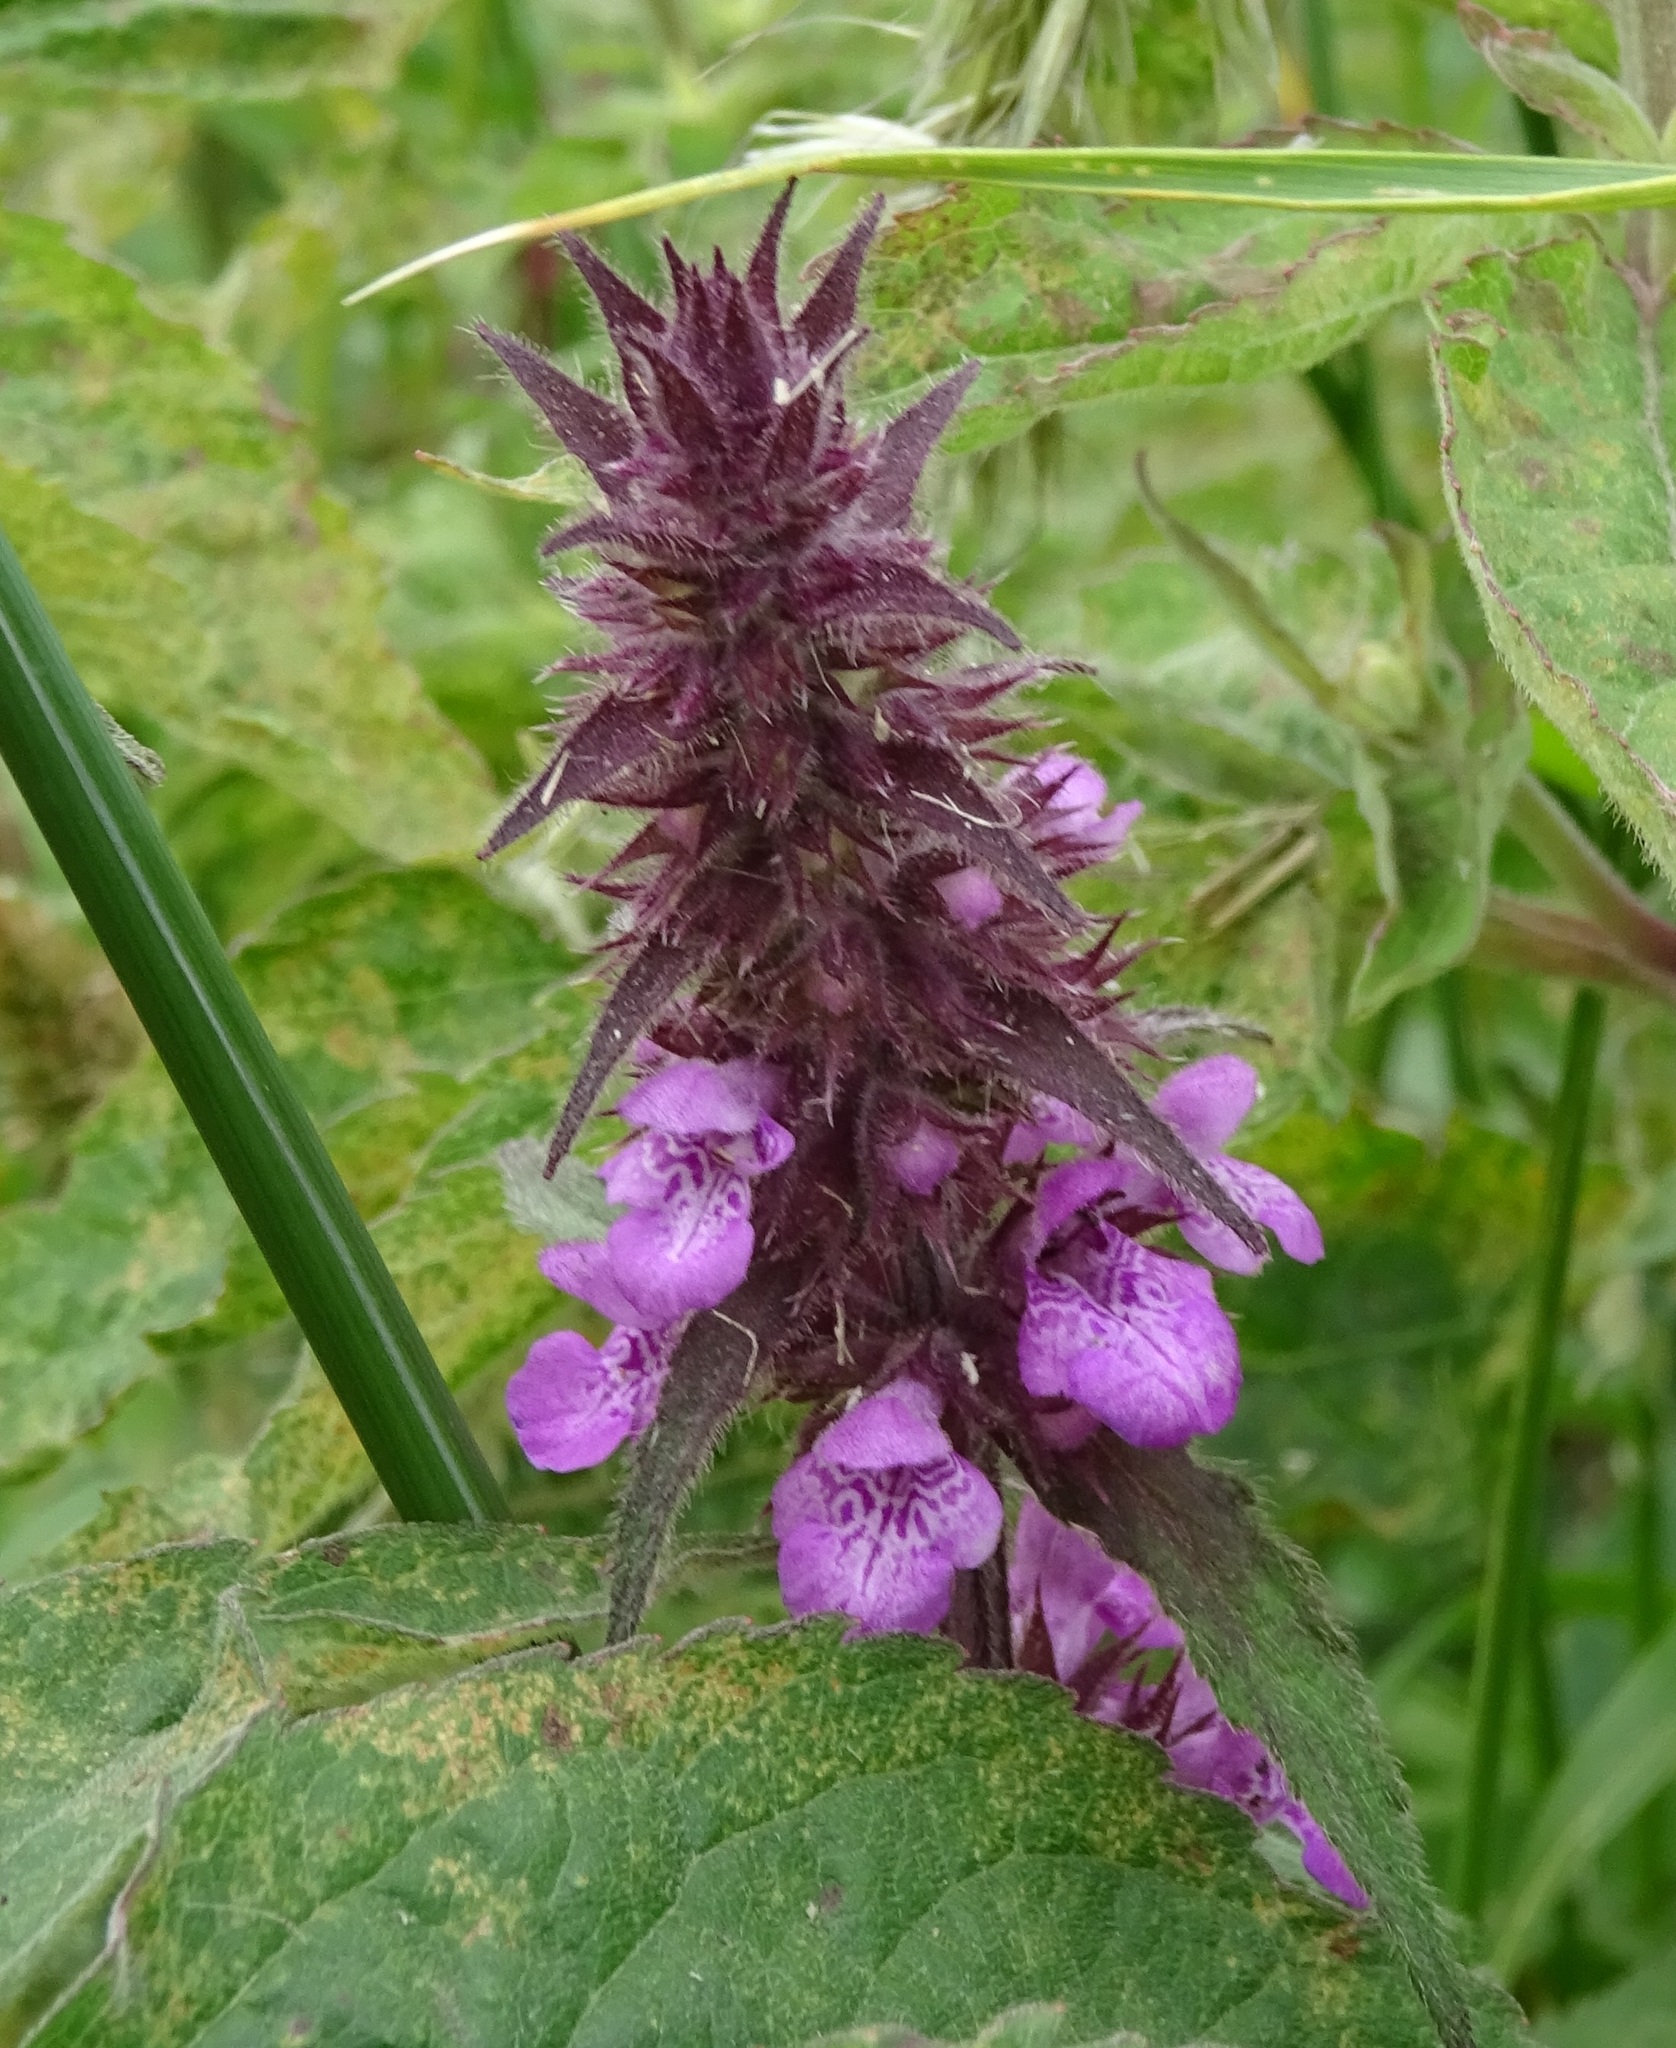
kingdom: Plantae
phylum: Tracheophyta
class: Magnoliopsida
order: Lamiales
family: Lamiaceae
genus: Stachys
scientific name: Stachys palustris
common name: Marsh woundwort
